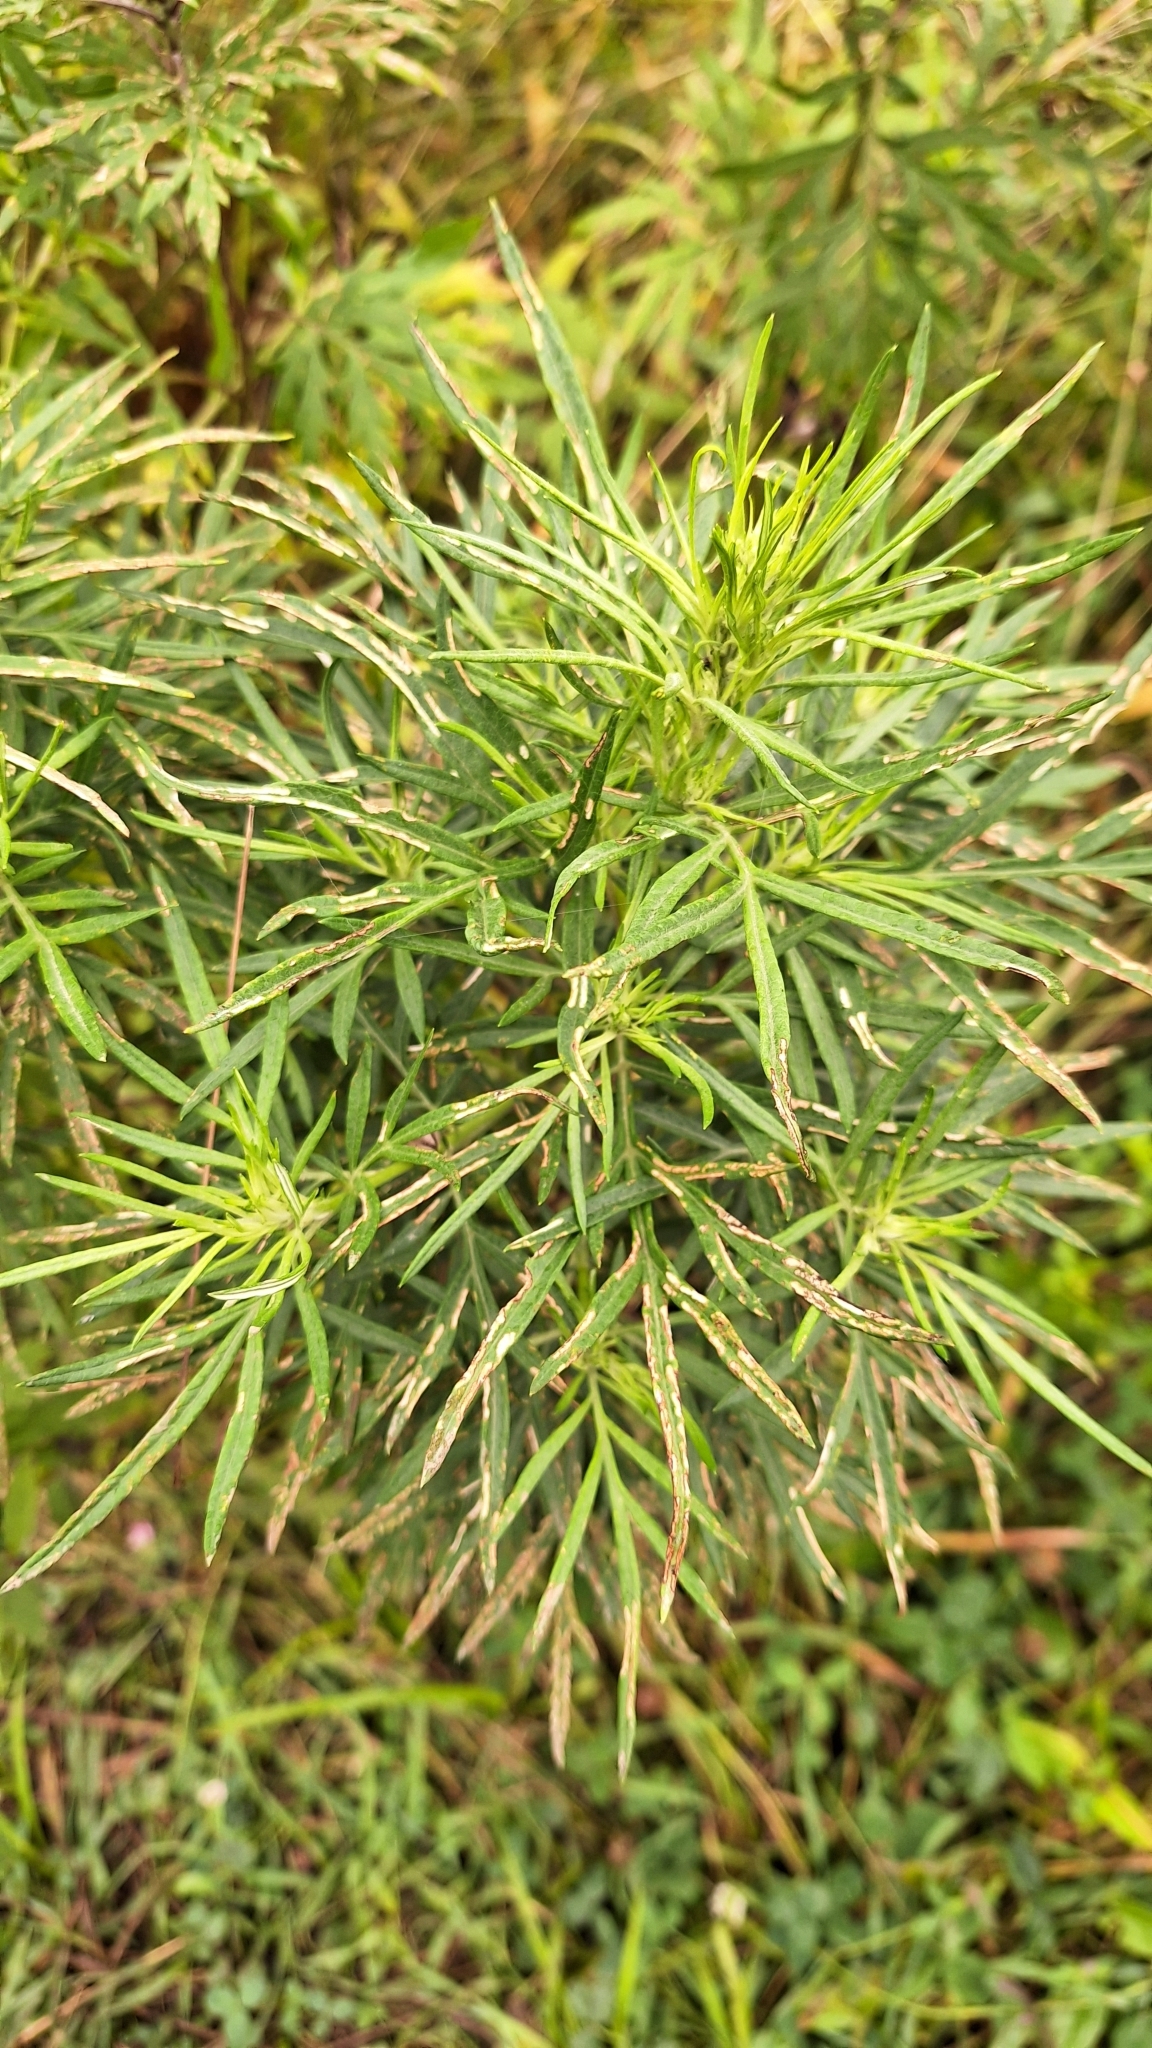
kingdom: Plantae
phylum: Tracheophyta
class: Magnoliopsida
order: Asterales
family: Asteraceae
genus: Artemisia
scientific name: Artemisia umbrosa
